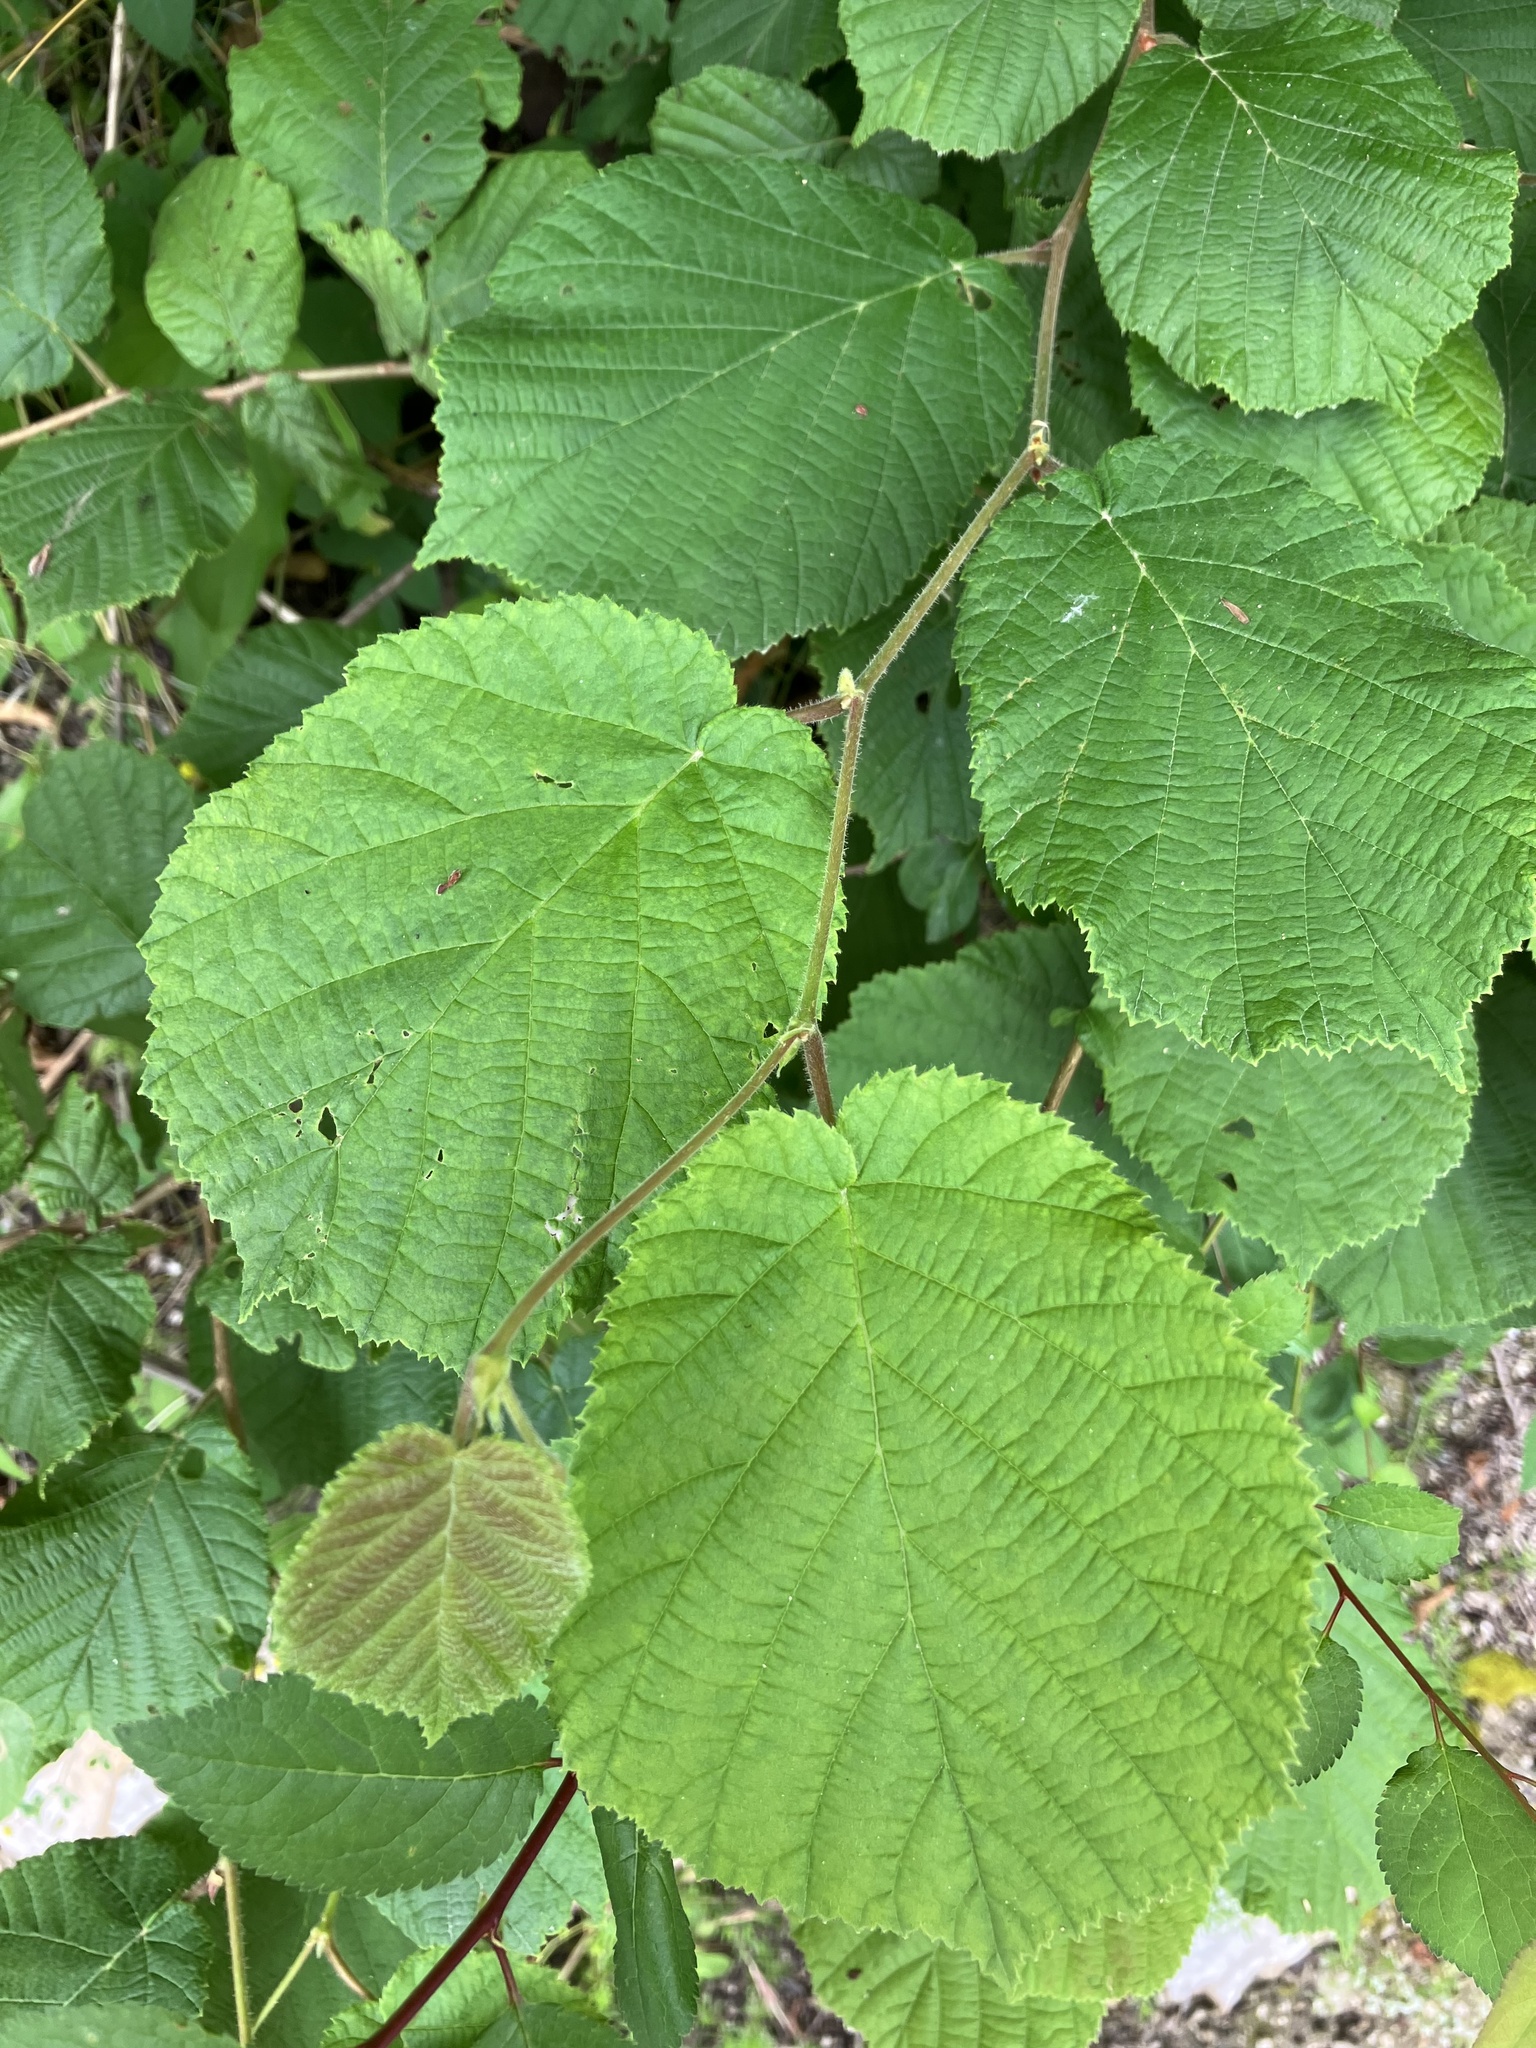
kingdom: Plantae
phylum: Tracheophyta
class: Magnoliopsida
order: Fagales
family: Betulaceae
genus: Corylus
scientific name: Corylus avellana
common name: European hazel
